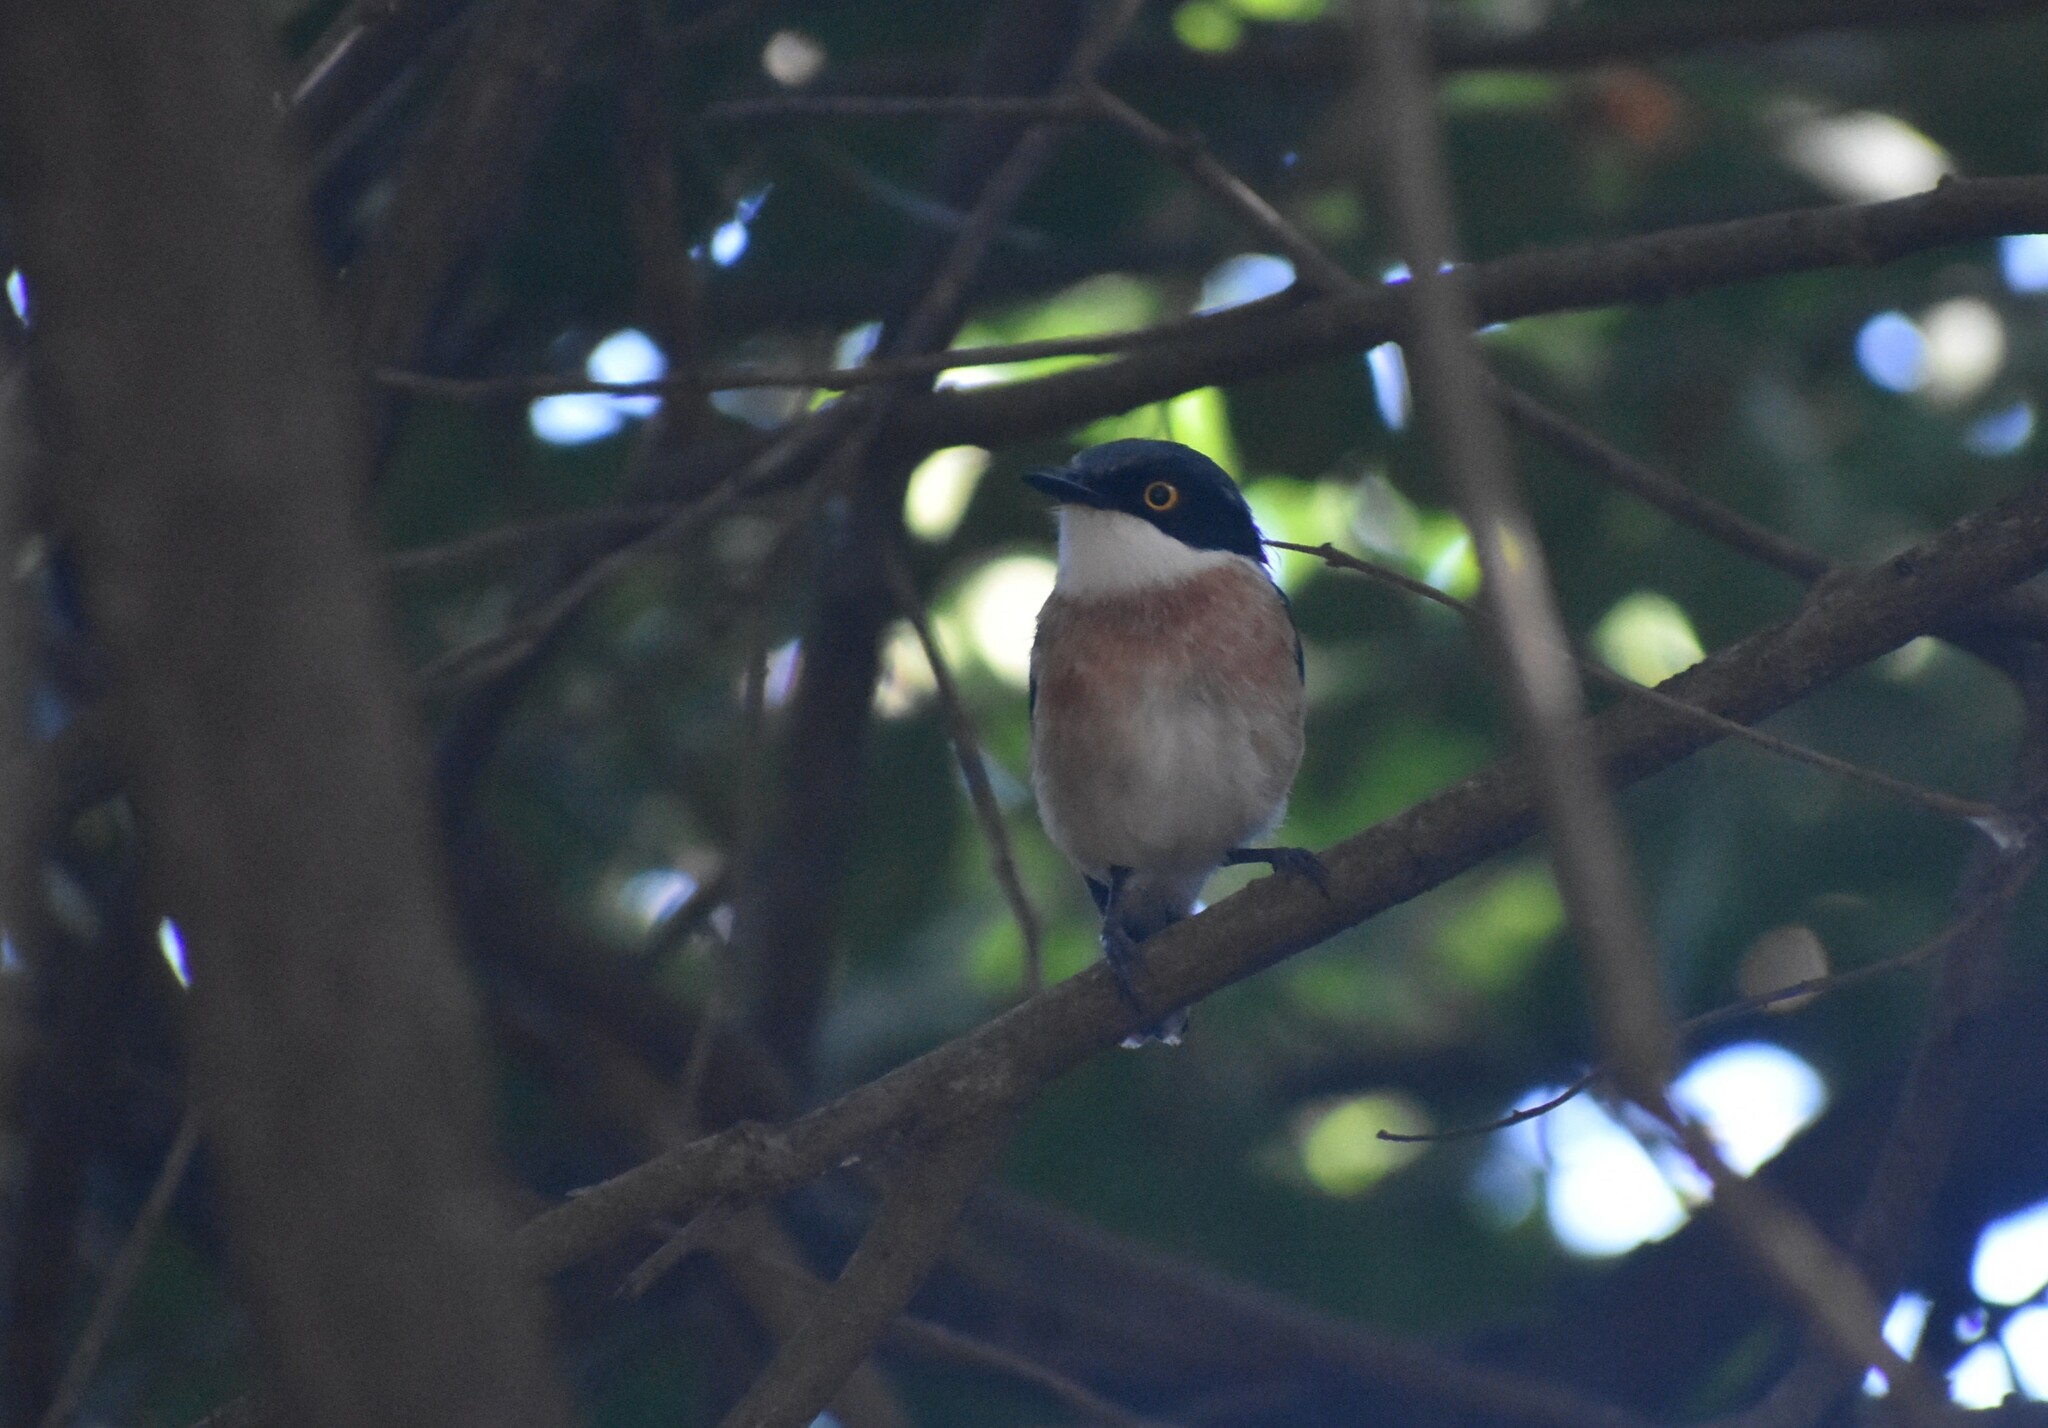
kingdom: Animalia
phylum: Chordata
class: Aves
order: Passeriformes
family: Platysteiridae
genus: Batis
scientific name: Batis fratrum
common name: Woodward's batis
